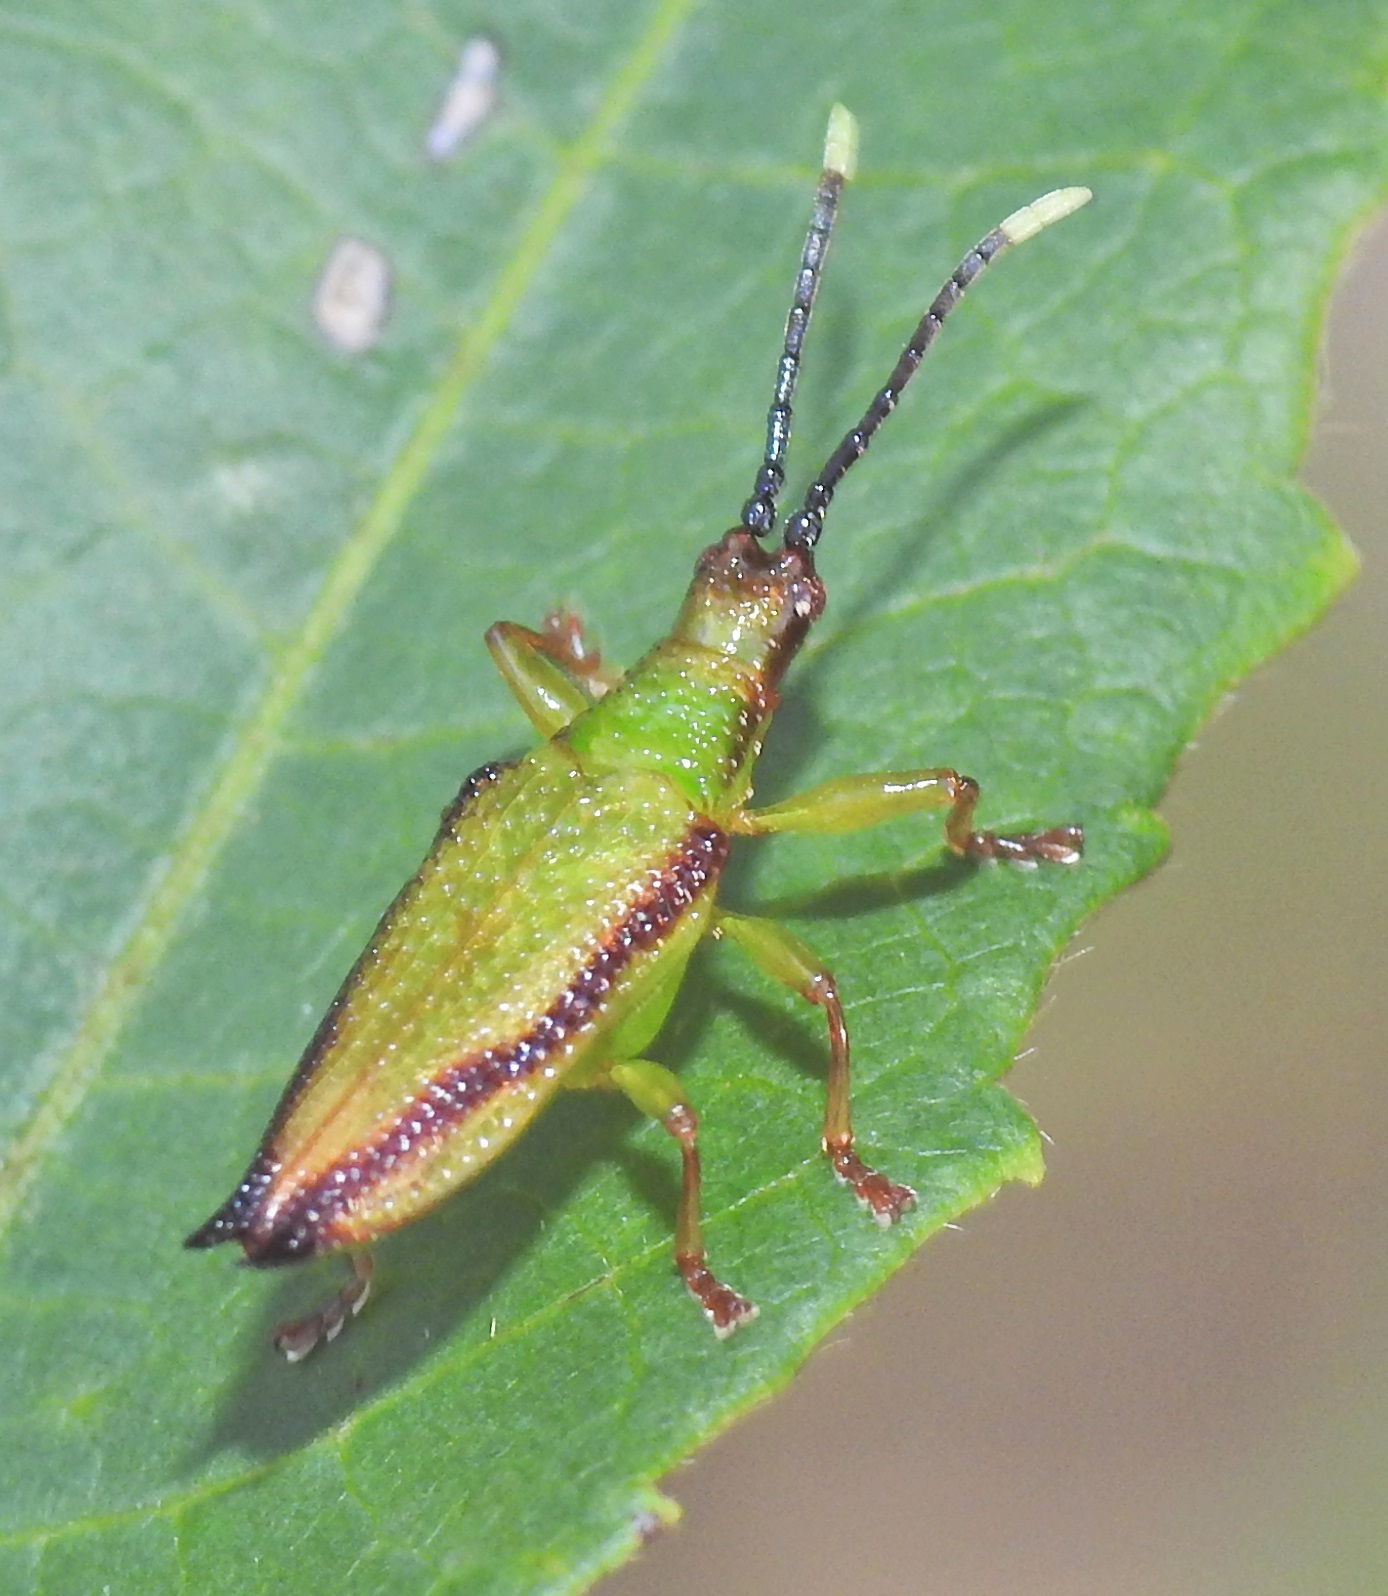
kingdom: Animalia
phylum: Arthropoda
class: Insecta
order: Coleoptera
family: Chrysomelidae
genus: Aproida
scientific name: Aproida balyi
